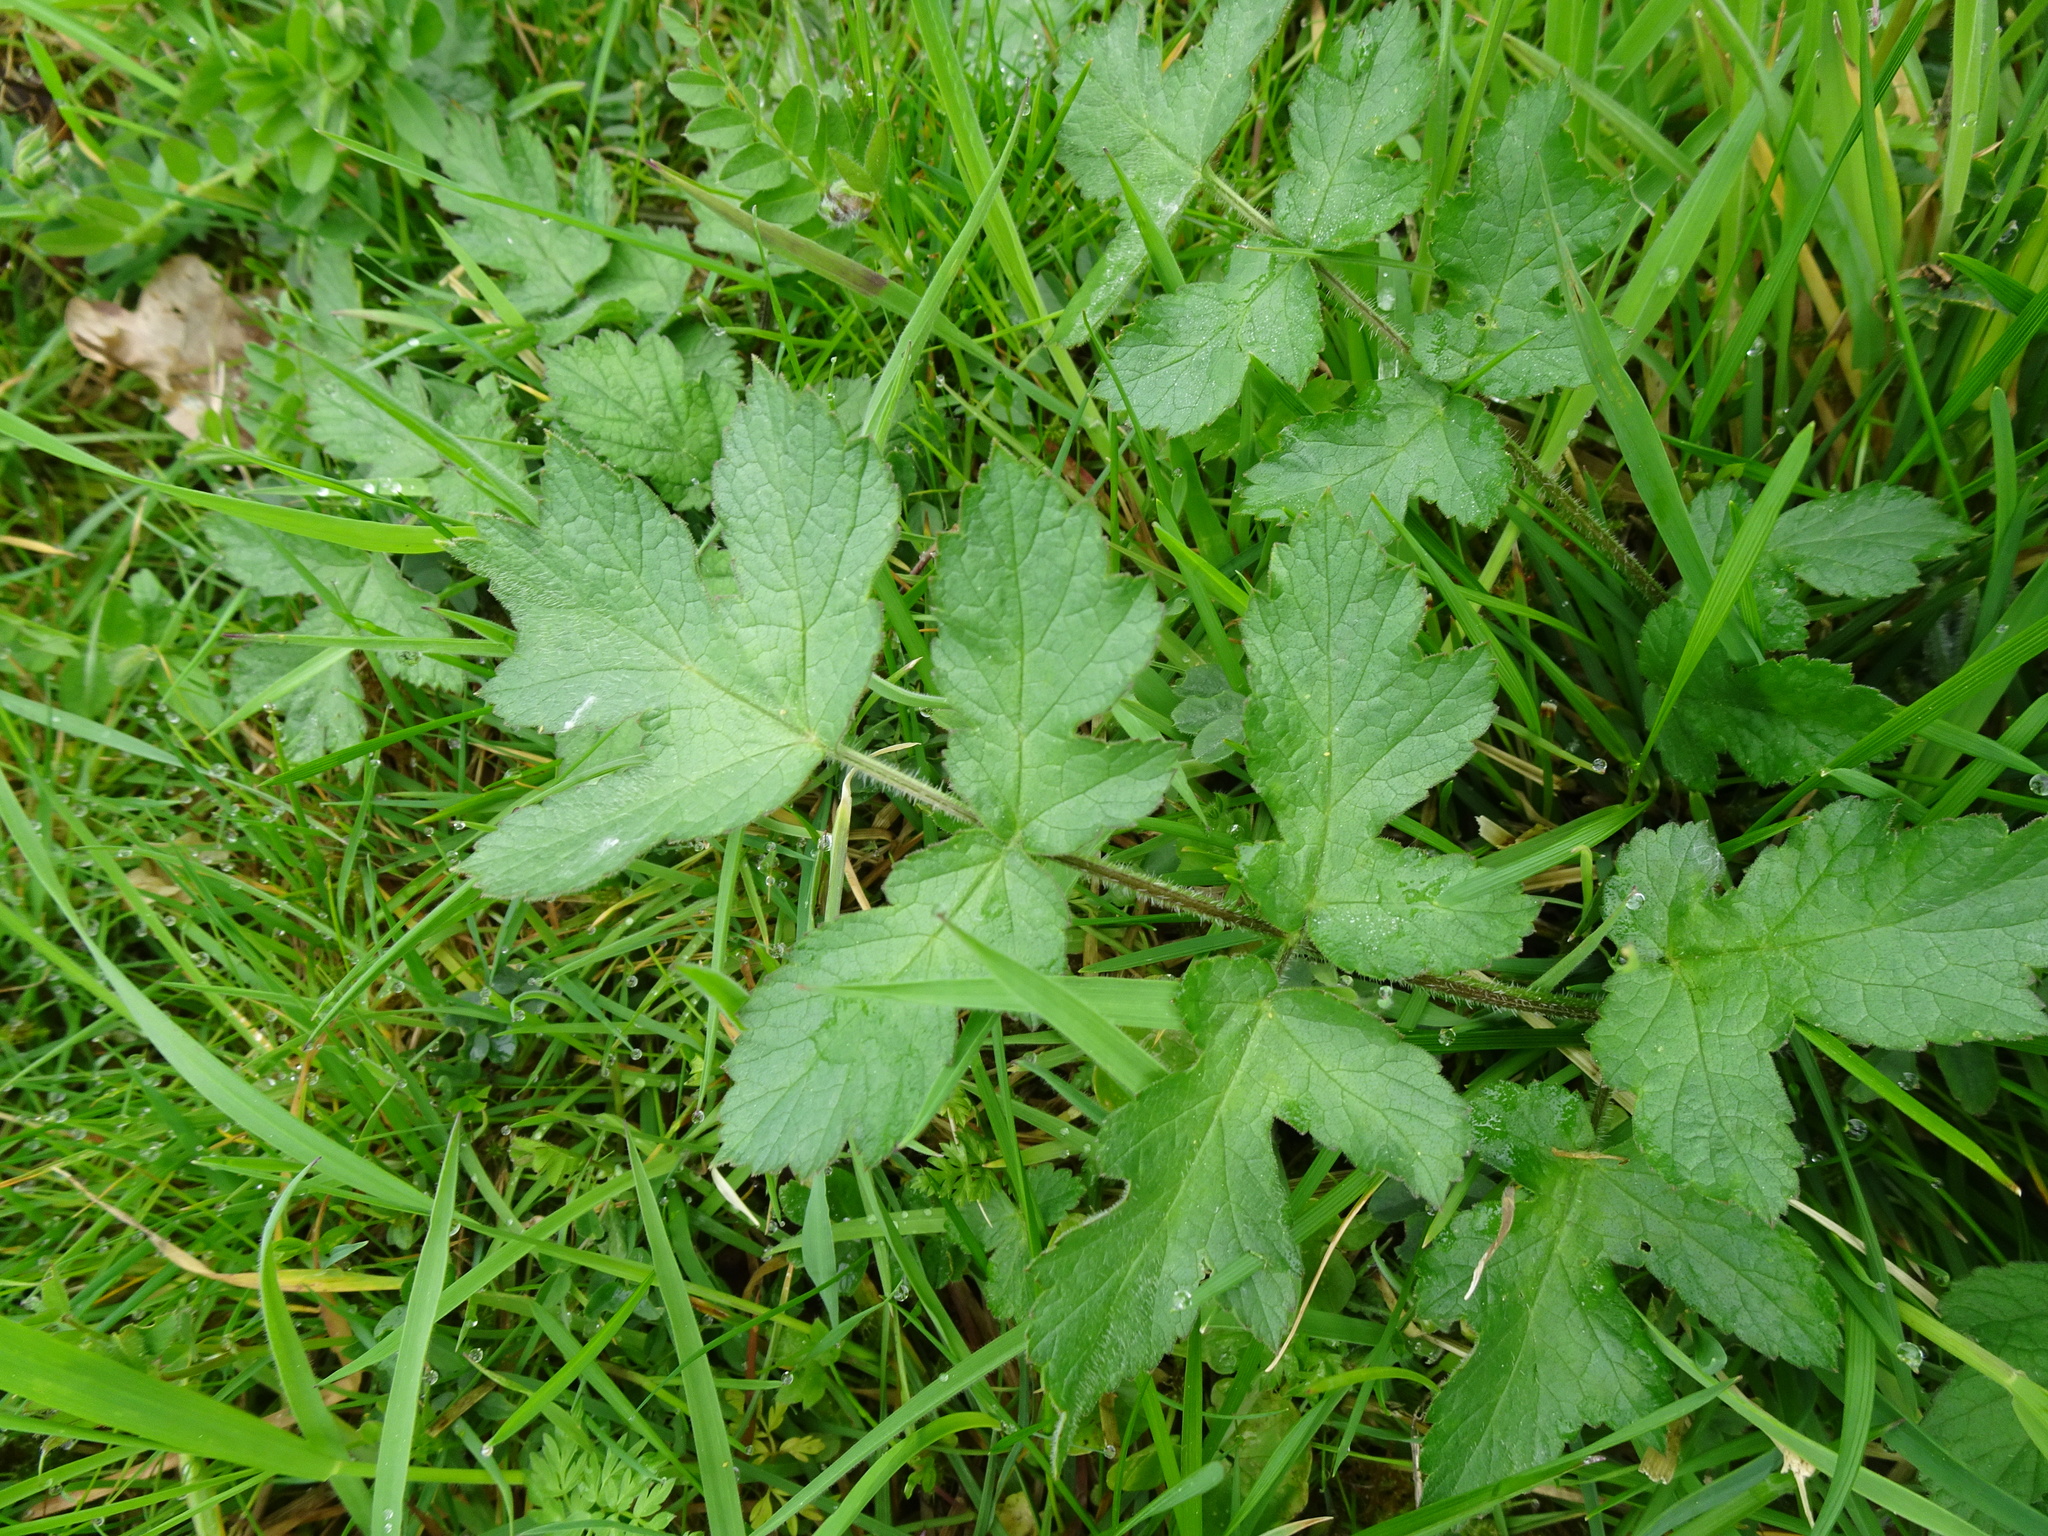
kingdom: Plantae
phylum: Tracheophyta
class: Magnoliopsida
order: Apiales
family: Apiaceae
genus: Heracleum
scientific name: Heracleum sphondylium
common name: Hogweed
